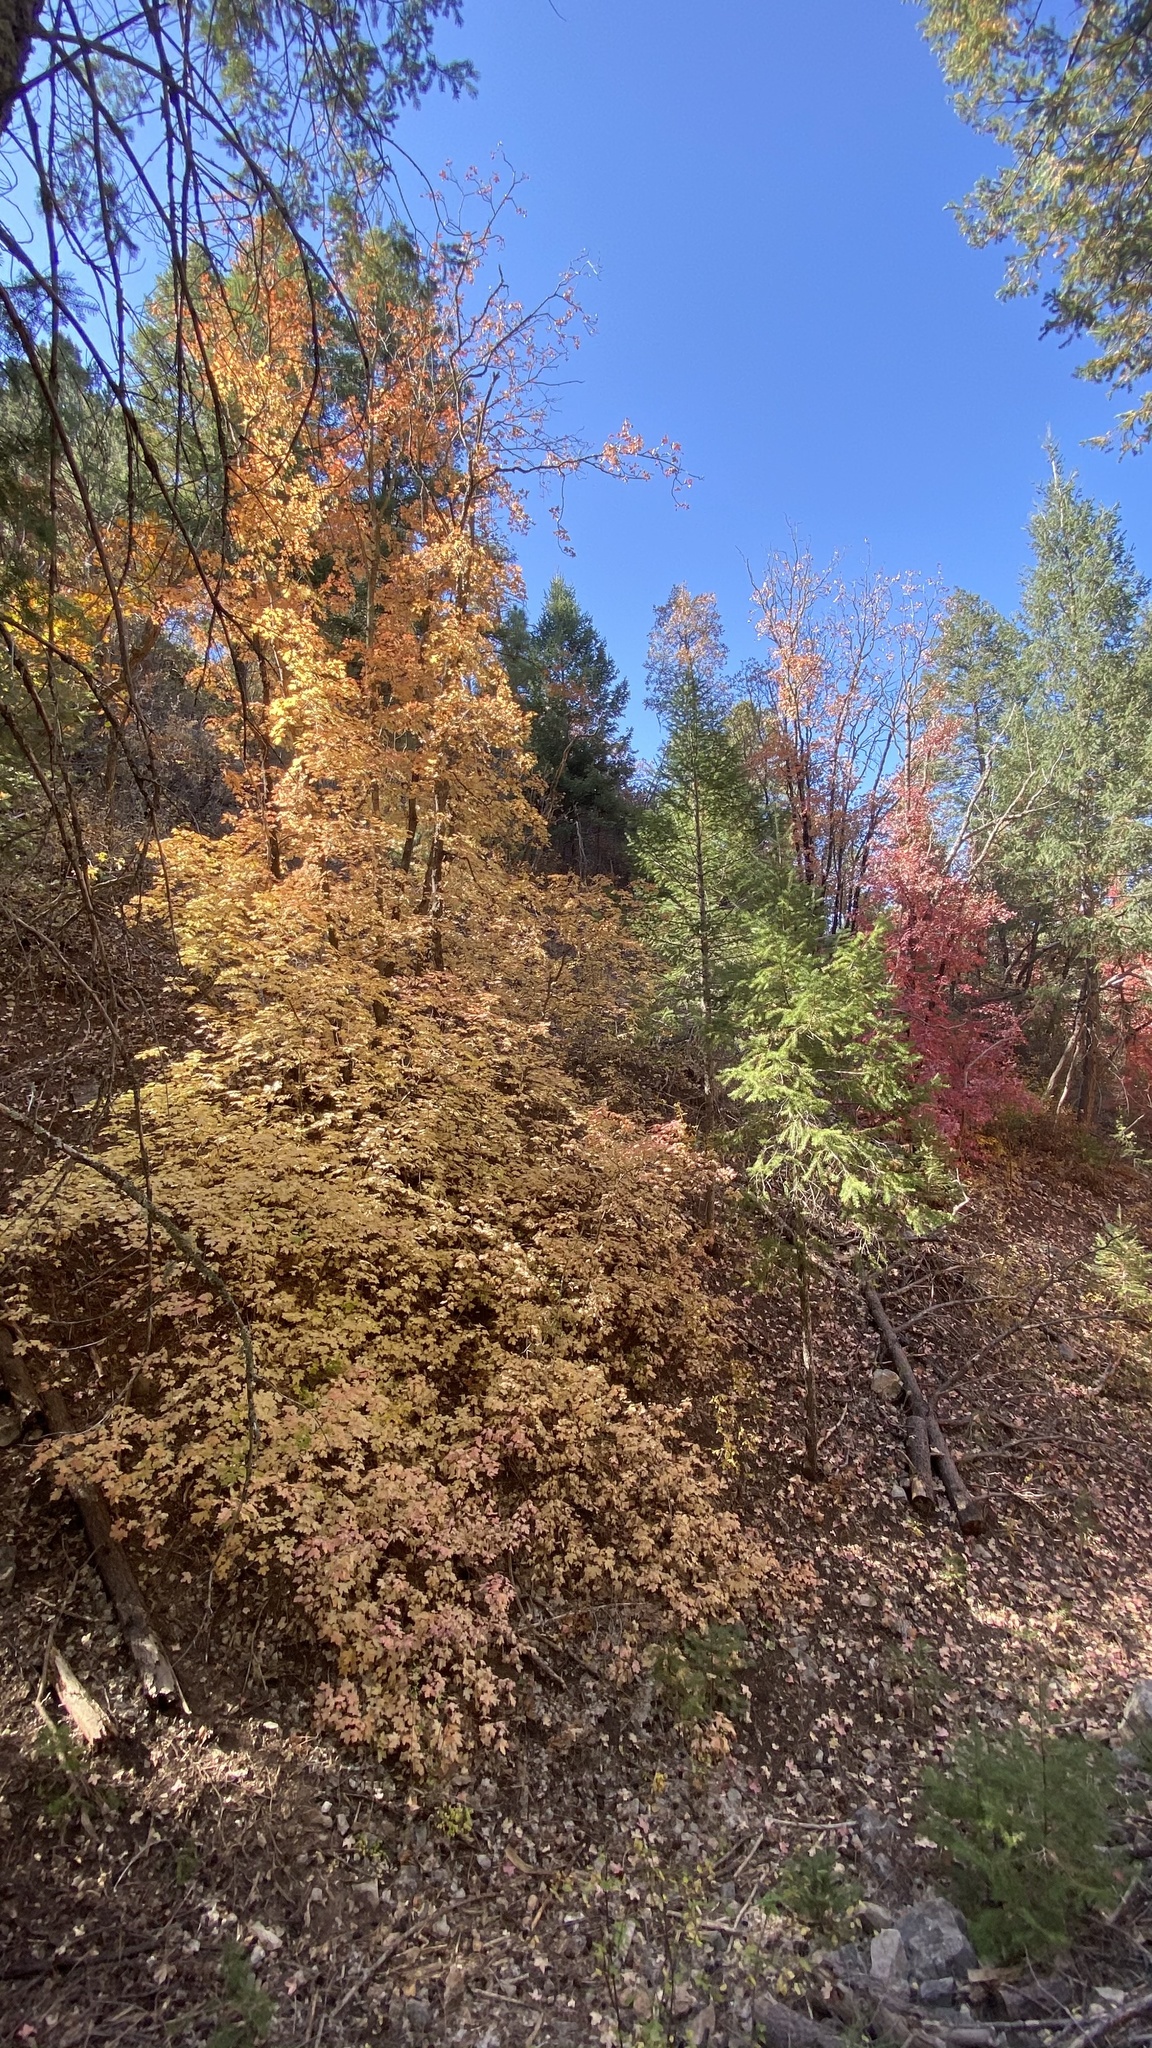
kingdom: Plantae
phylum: Tracheophyta
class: Magnoliopsida
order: Sapindales
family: Sapindaceae
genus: Acer
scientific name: Acer grandidentatum
